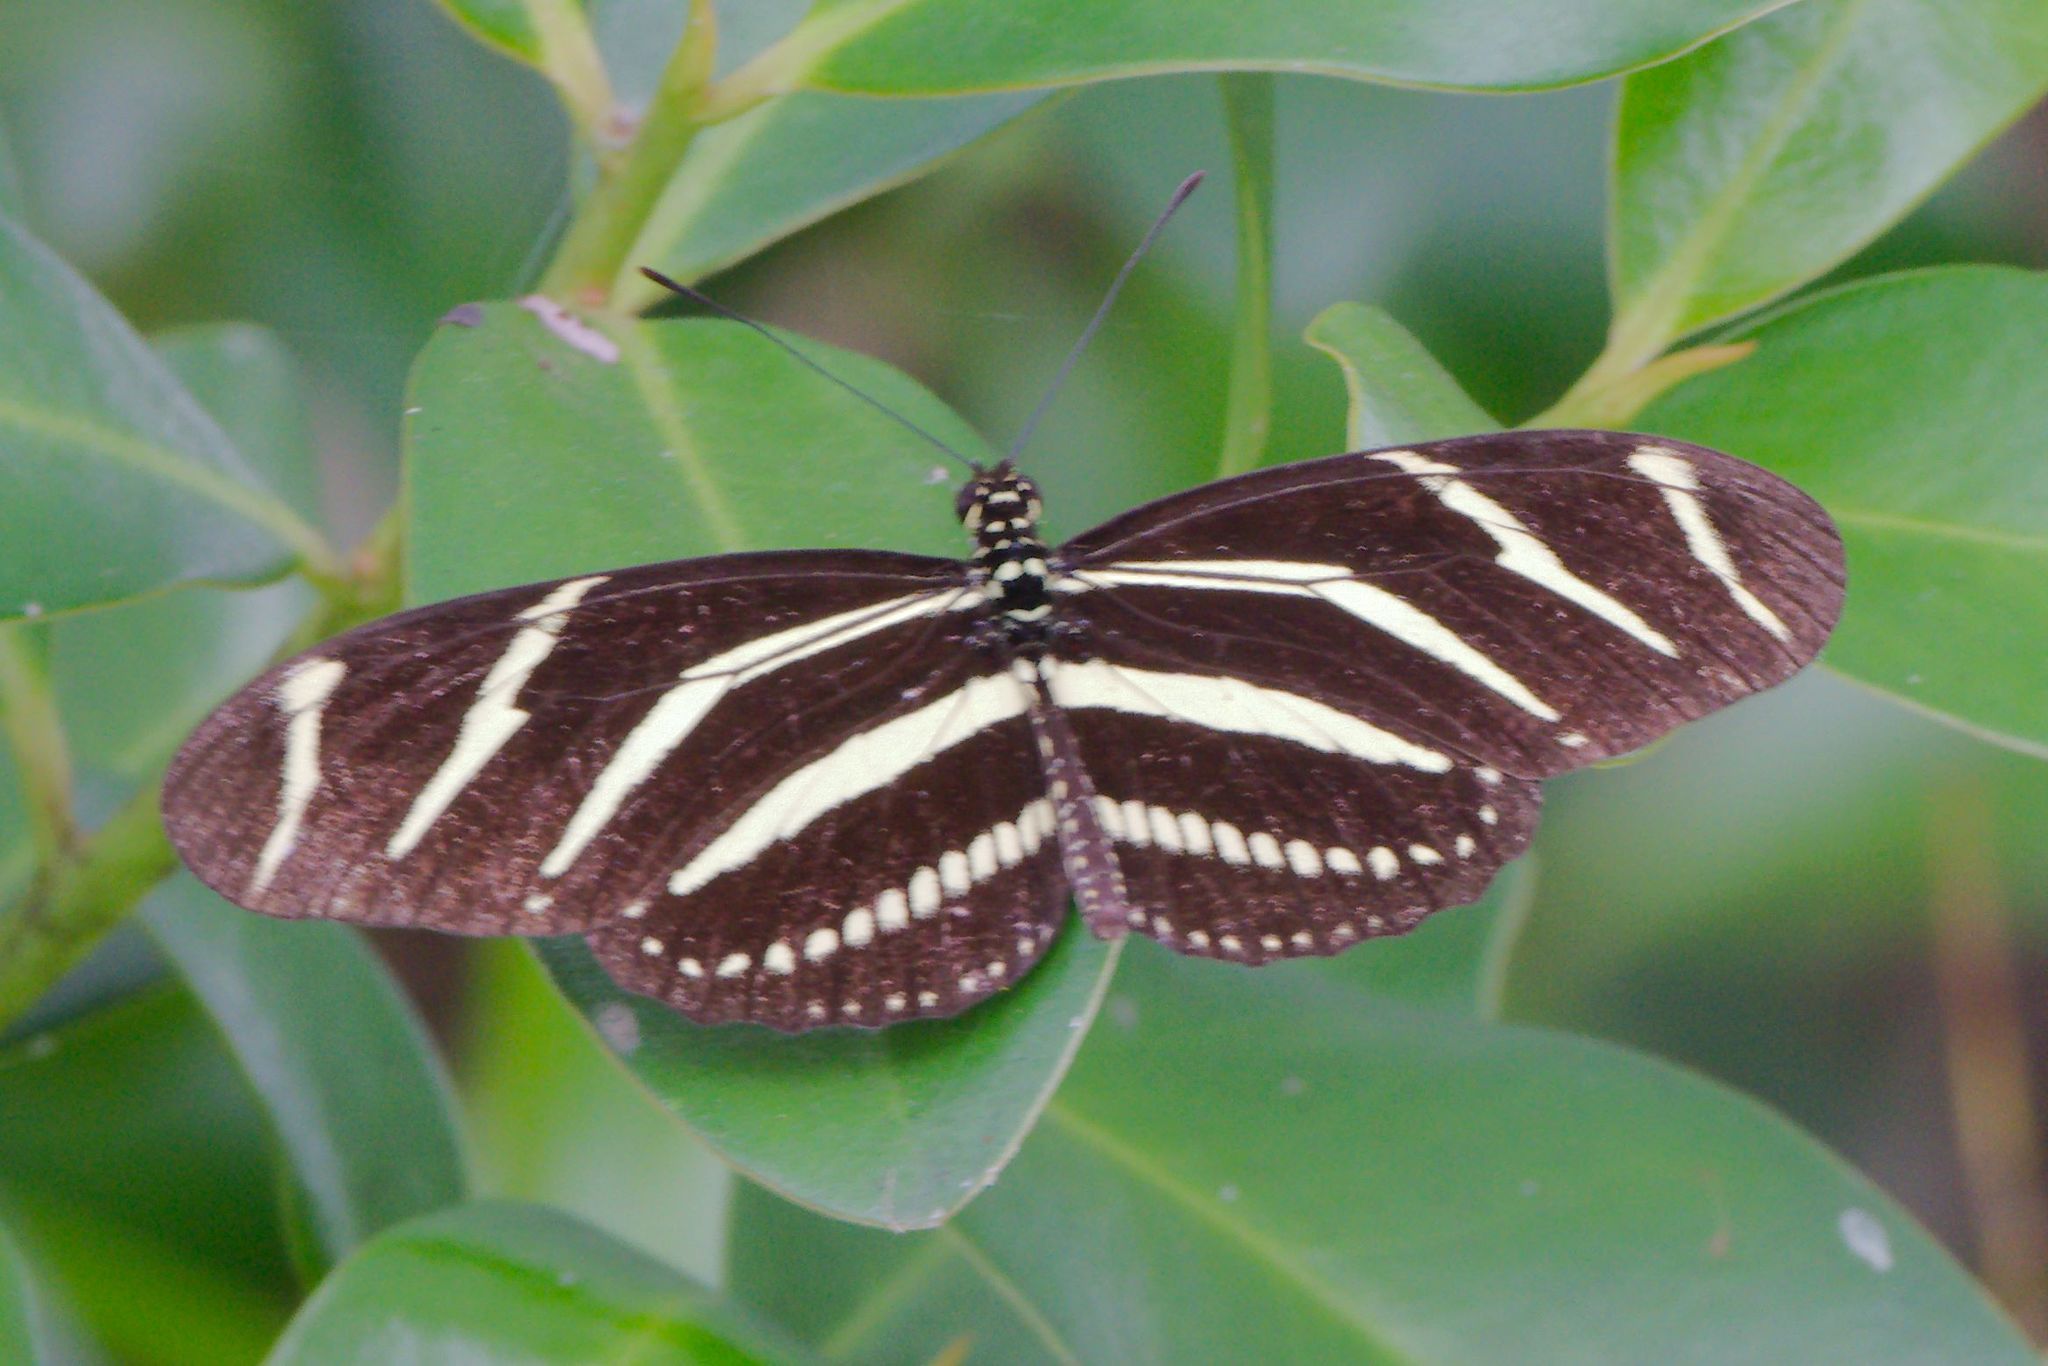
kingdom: Animalia
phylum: Arthropoda
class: Insecta
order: Lepidoptera
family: Nymphalidae
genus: Heliconius
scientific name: Heliconius charithonia
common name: Zebra long wing
